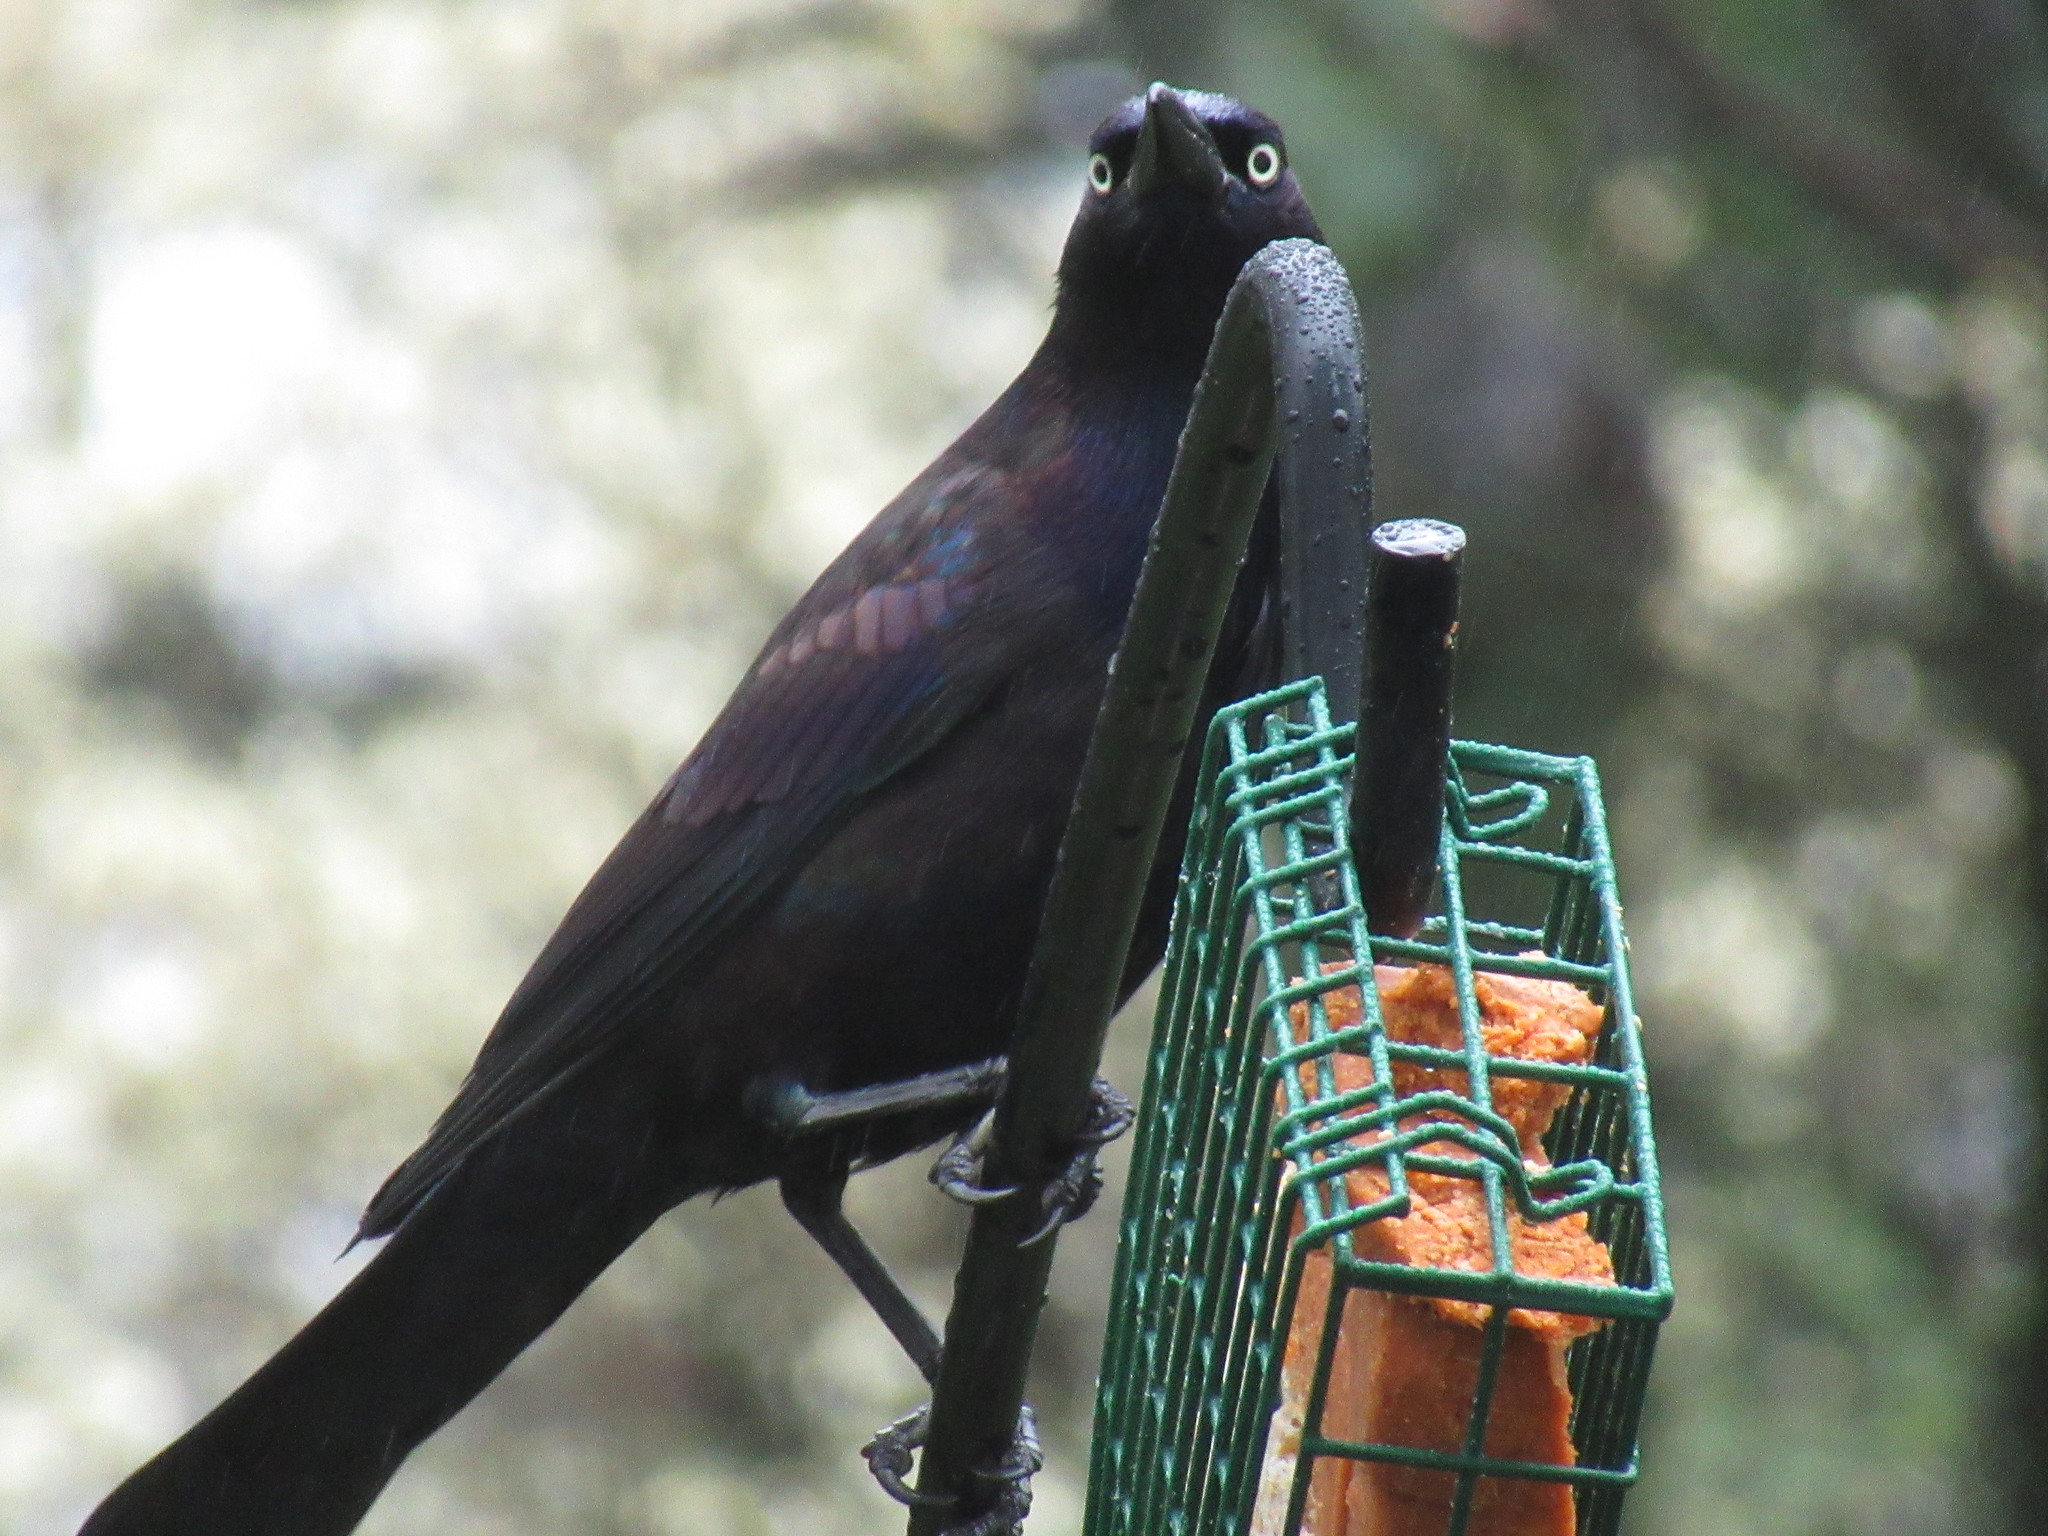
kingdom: Animalia
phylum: Chordata
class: Aves
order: Passeriformes
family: Icteridae
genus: Quiscalus
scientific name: Quiscalus quiscula
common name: Common grackle
